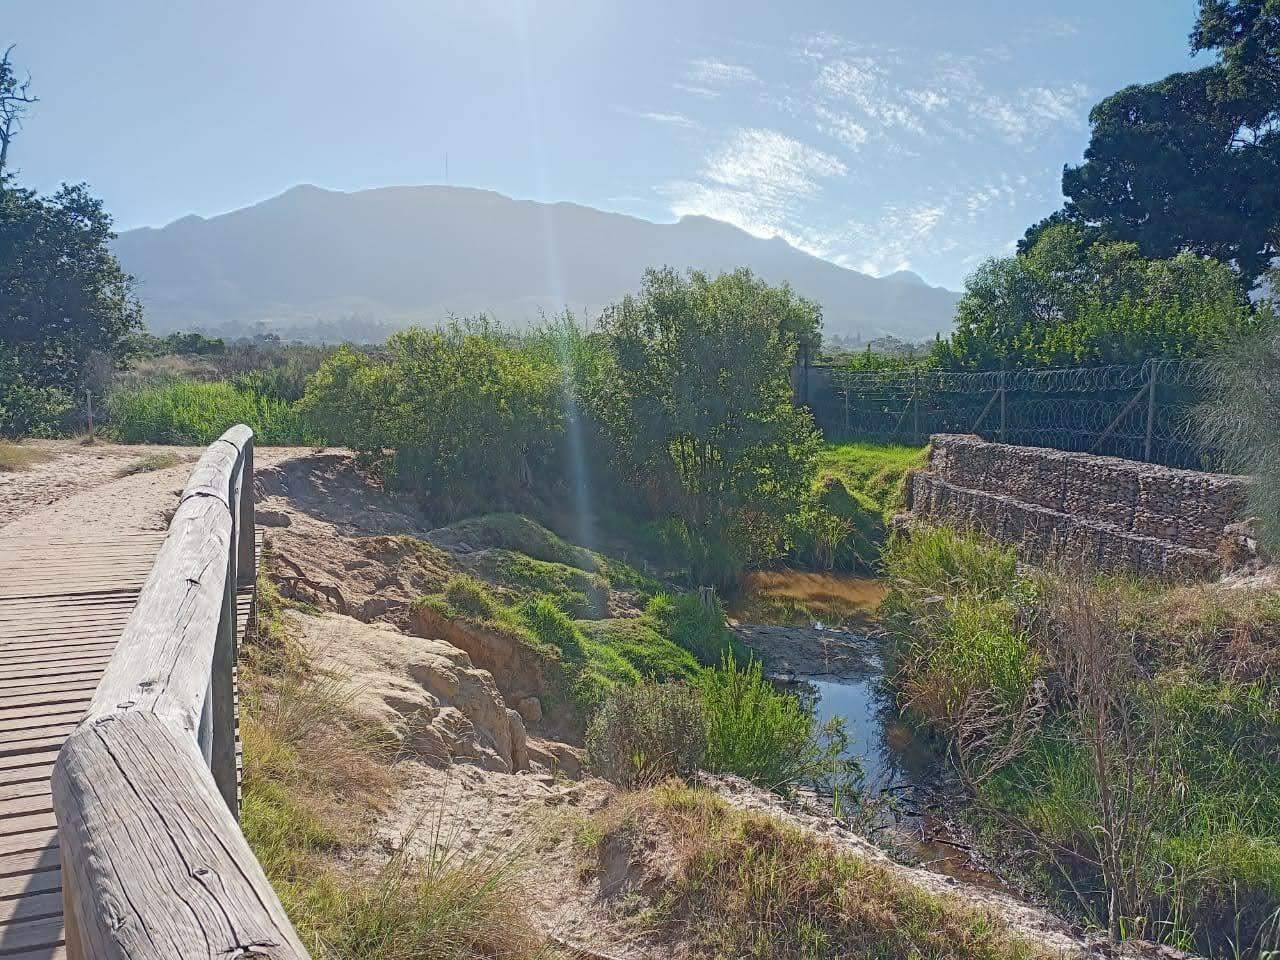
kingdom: Plantae
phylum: Tracheophyta
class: Liliopsida
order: Poales
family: Poaceae
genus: Cenchrus
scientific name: Cenchrus clandestinus
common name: Kikuyugrass
